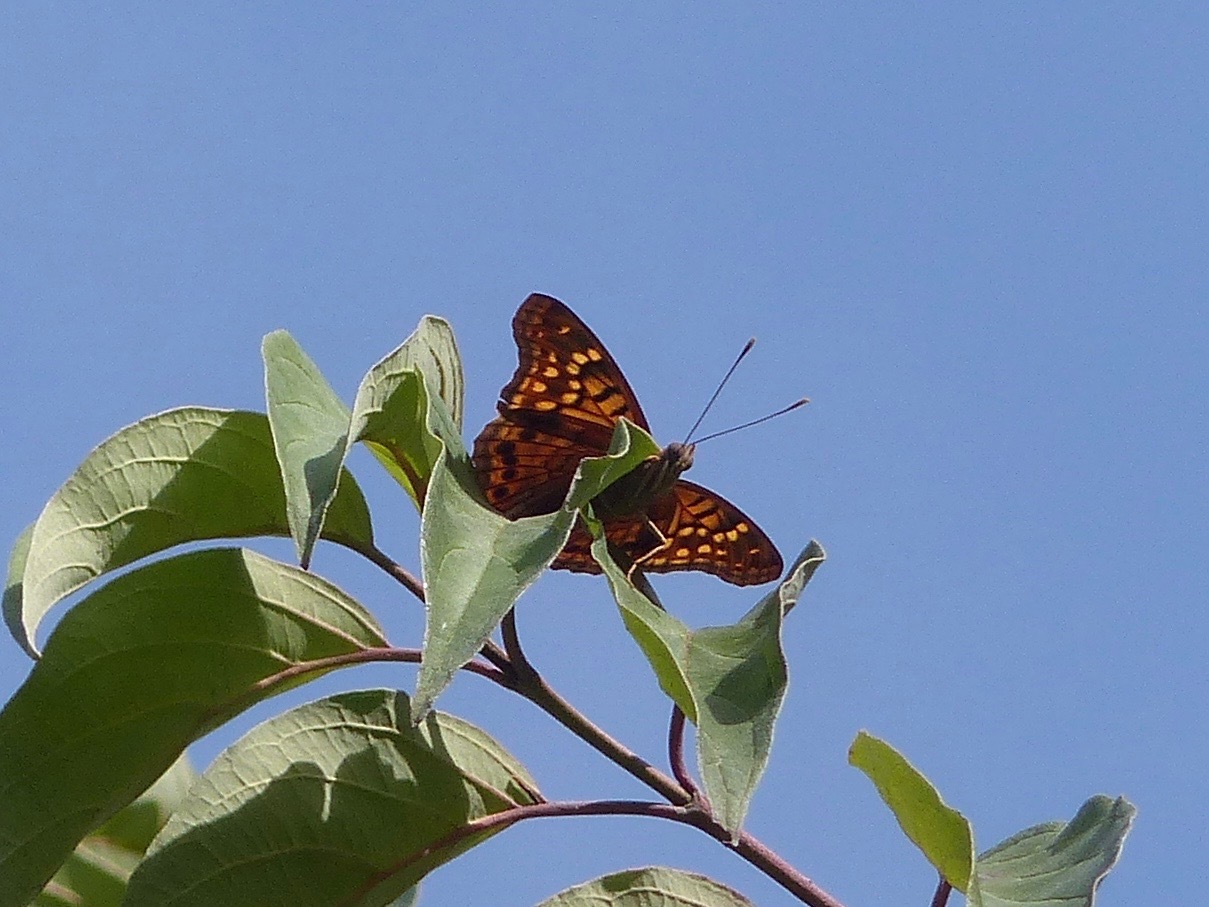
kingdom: Animalia
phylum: Arthropoda
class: Insecta
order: Lepidoptera
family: Nymphalidae
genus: Asterocampa
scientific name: Asterocampa clyton
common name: Tawny emperor
